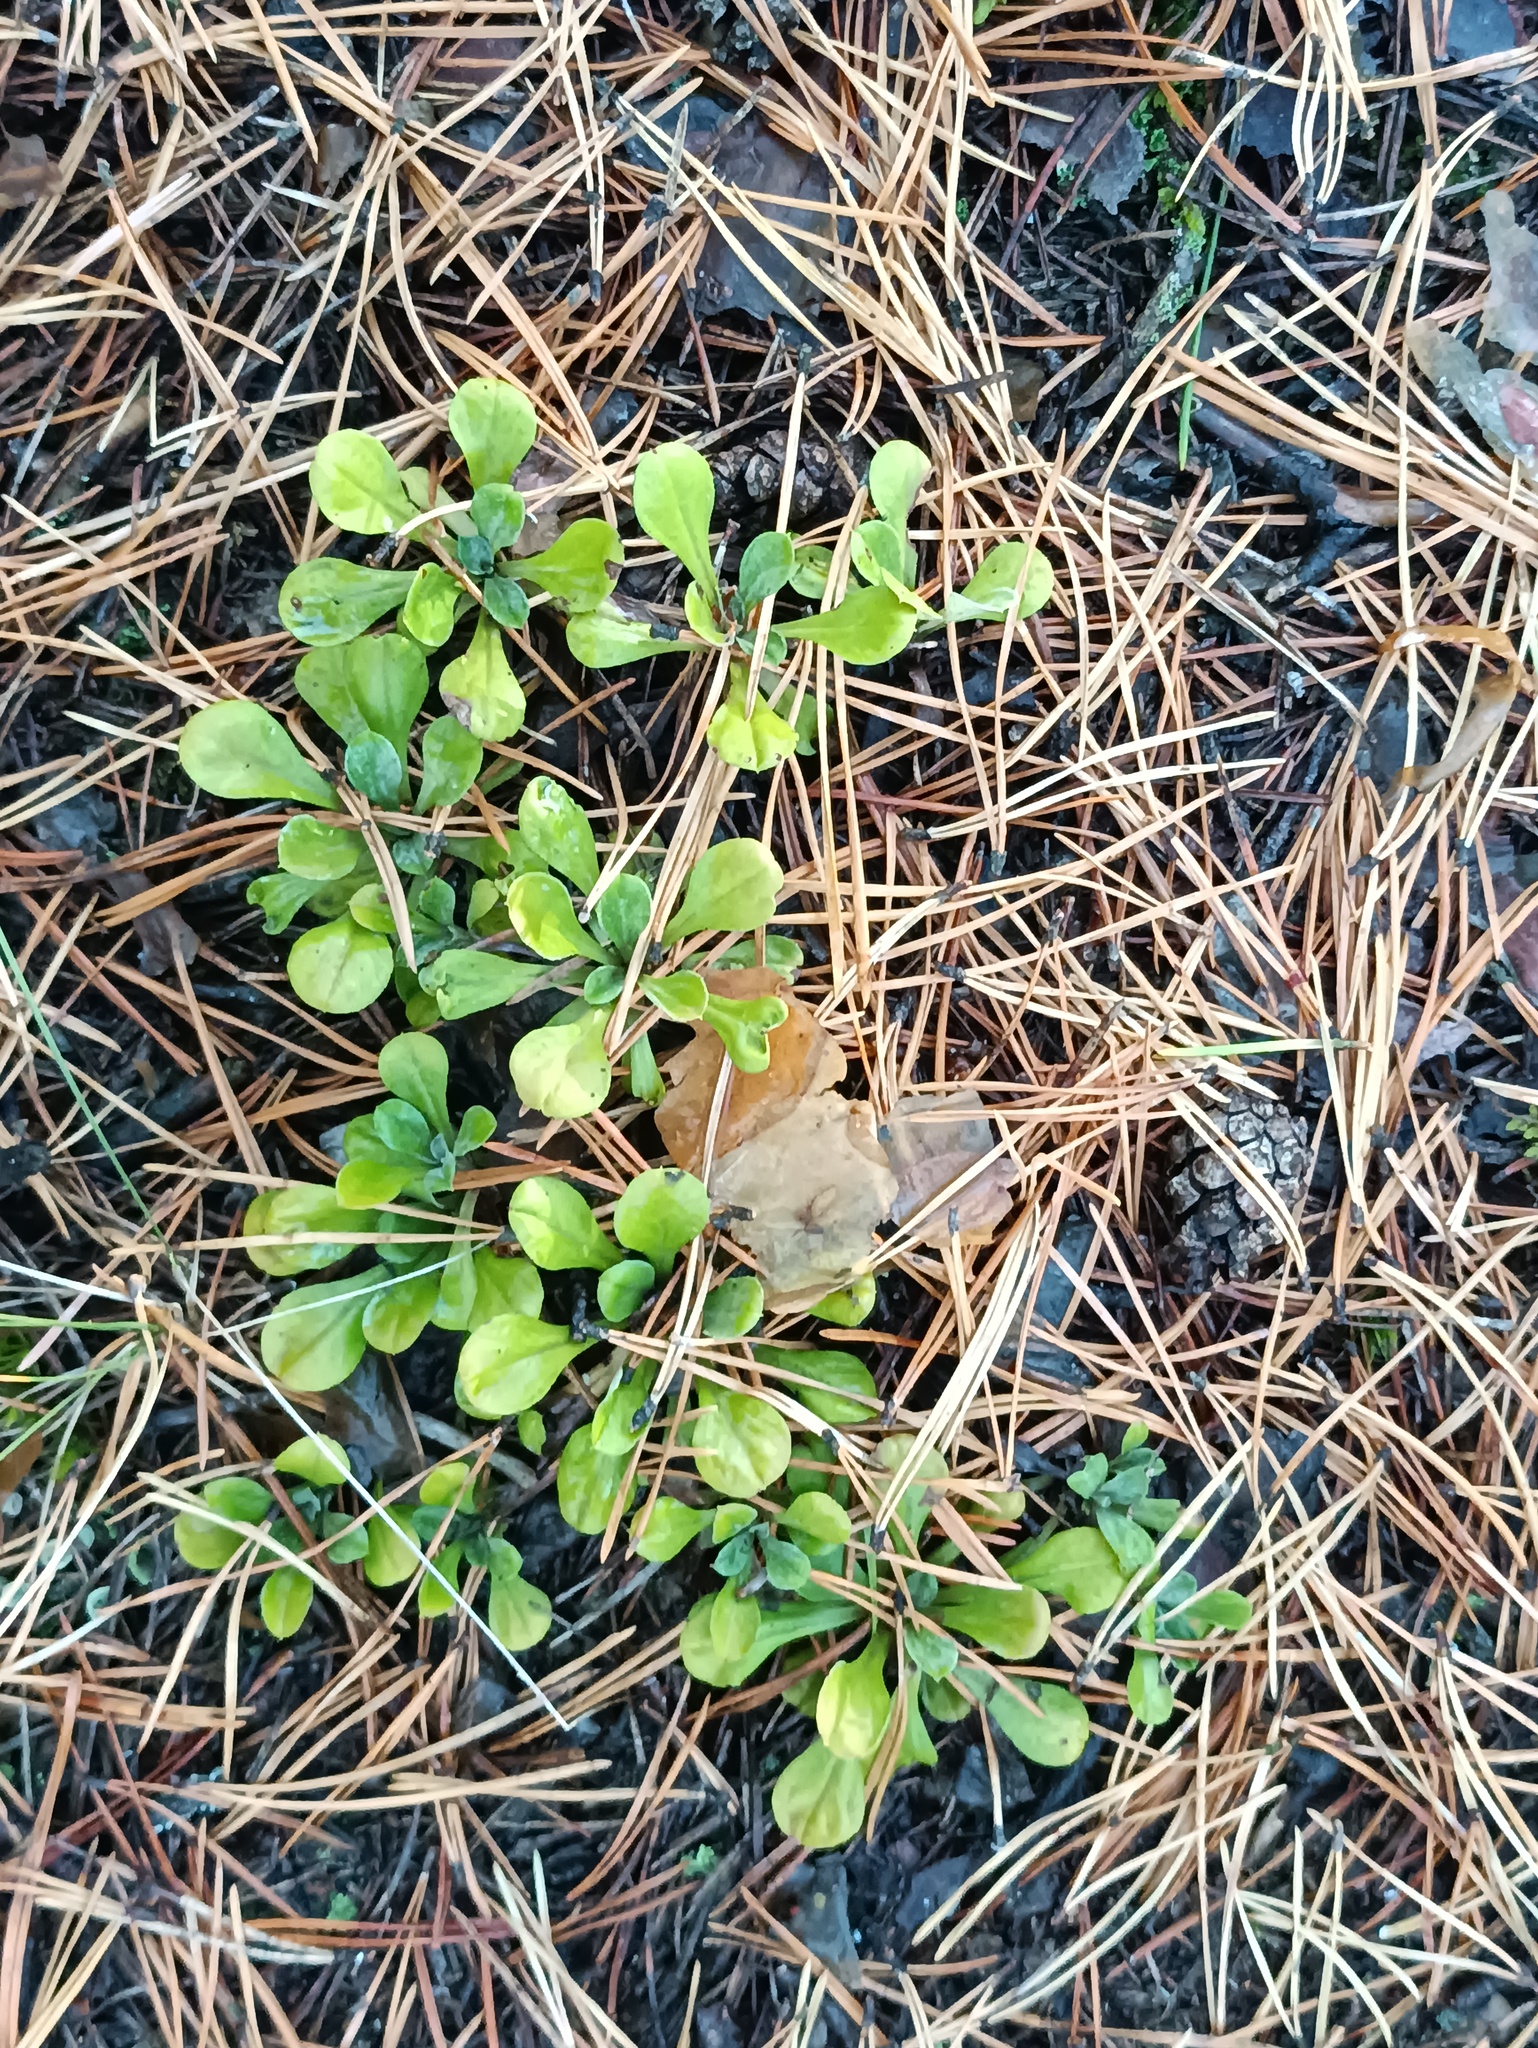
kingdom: Plantae
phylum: Tracheophyta
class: Magnoliopsida
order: Asterales
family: Asteraceae
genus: Antennaria
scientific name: Antennaria dioica
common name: Mountain everlasting
